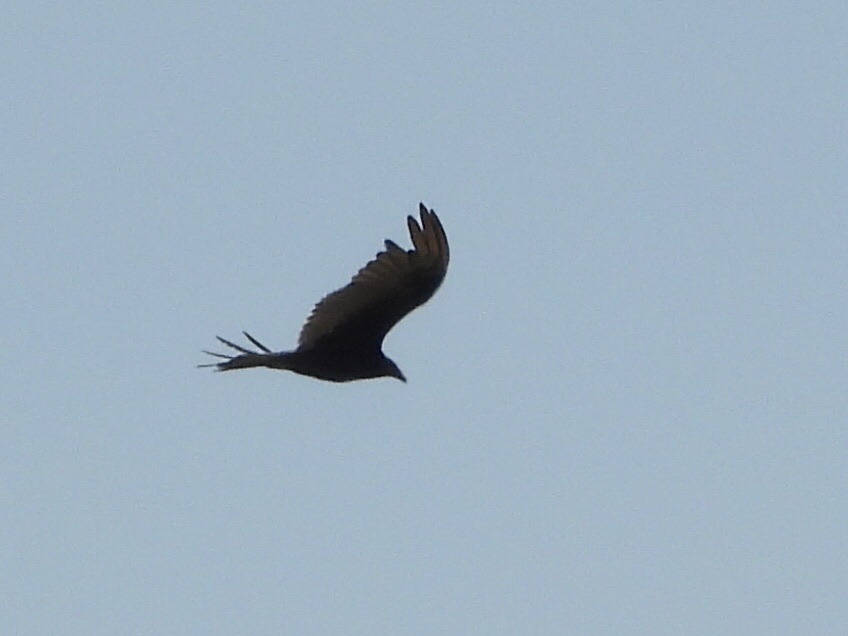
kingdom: Animalia
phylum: Chordata
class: Aves
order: Accipitriformes
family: Cathartidae
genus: Cathartes
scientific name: Cathartes aura
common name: Turkey vulture
